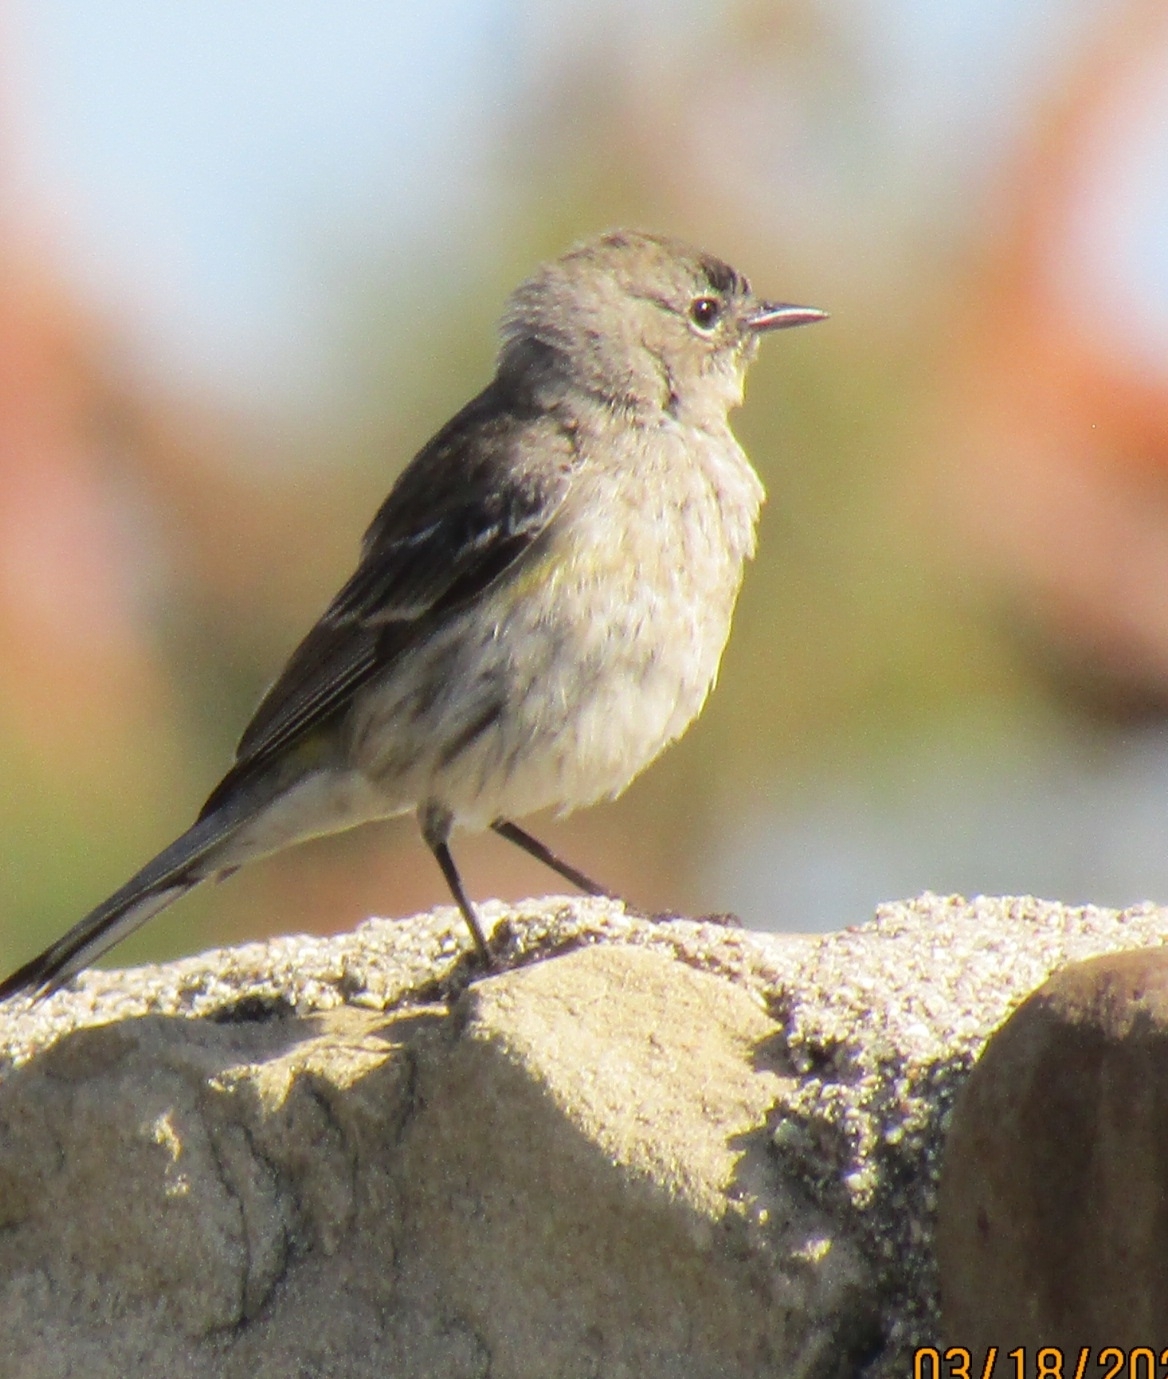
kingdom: Animalia
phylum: Chordata
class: Aves
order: Passeriformes
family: Parulidae
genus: Setophaga
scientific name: Setophaga coronata
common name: Myrtle warbler
